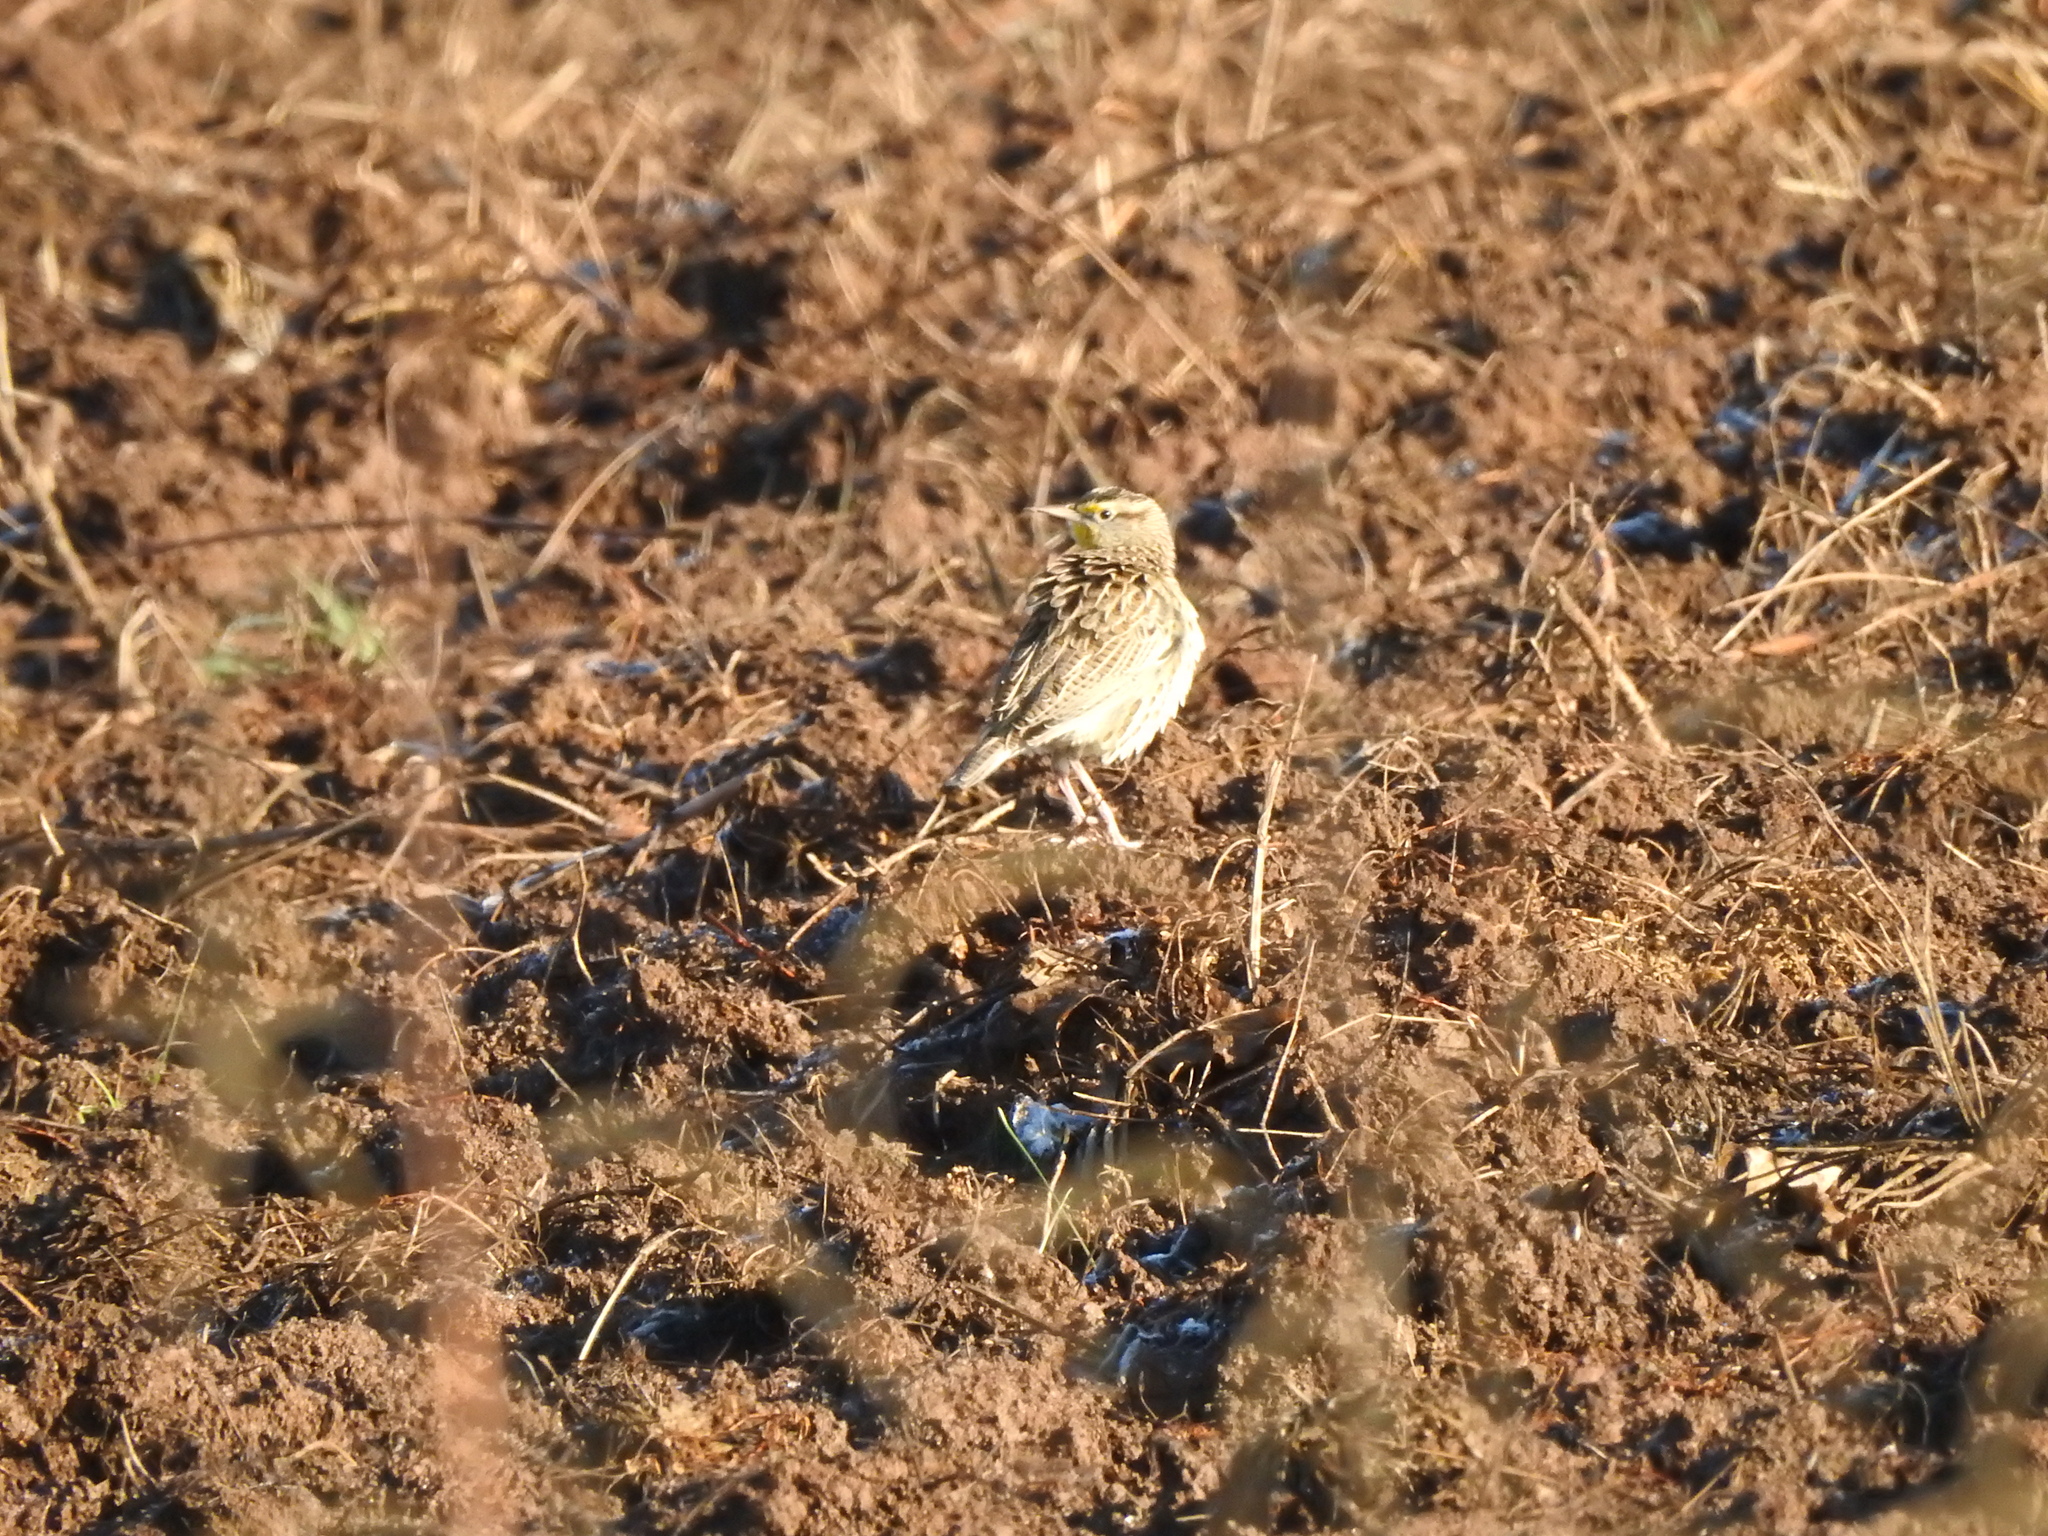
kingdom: Animalia
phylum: Chordata
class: Aves
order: Passeriformes
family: Icteridae
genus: Sturnella
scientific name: Sturnella neglecta
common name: Western meadowlark
